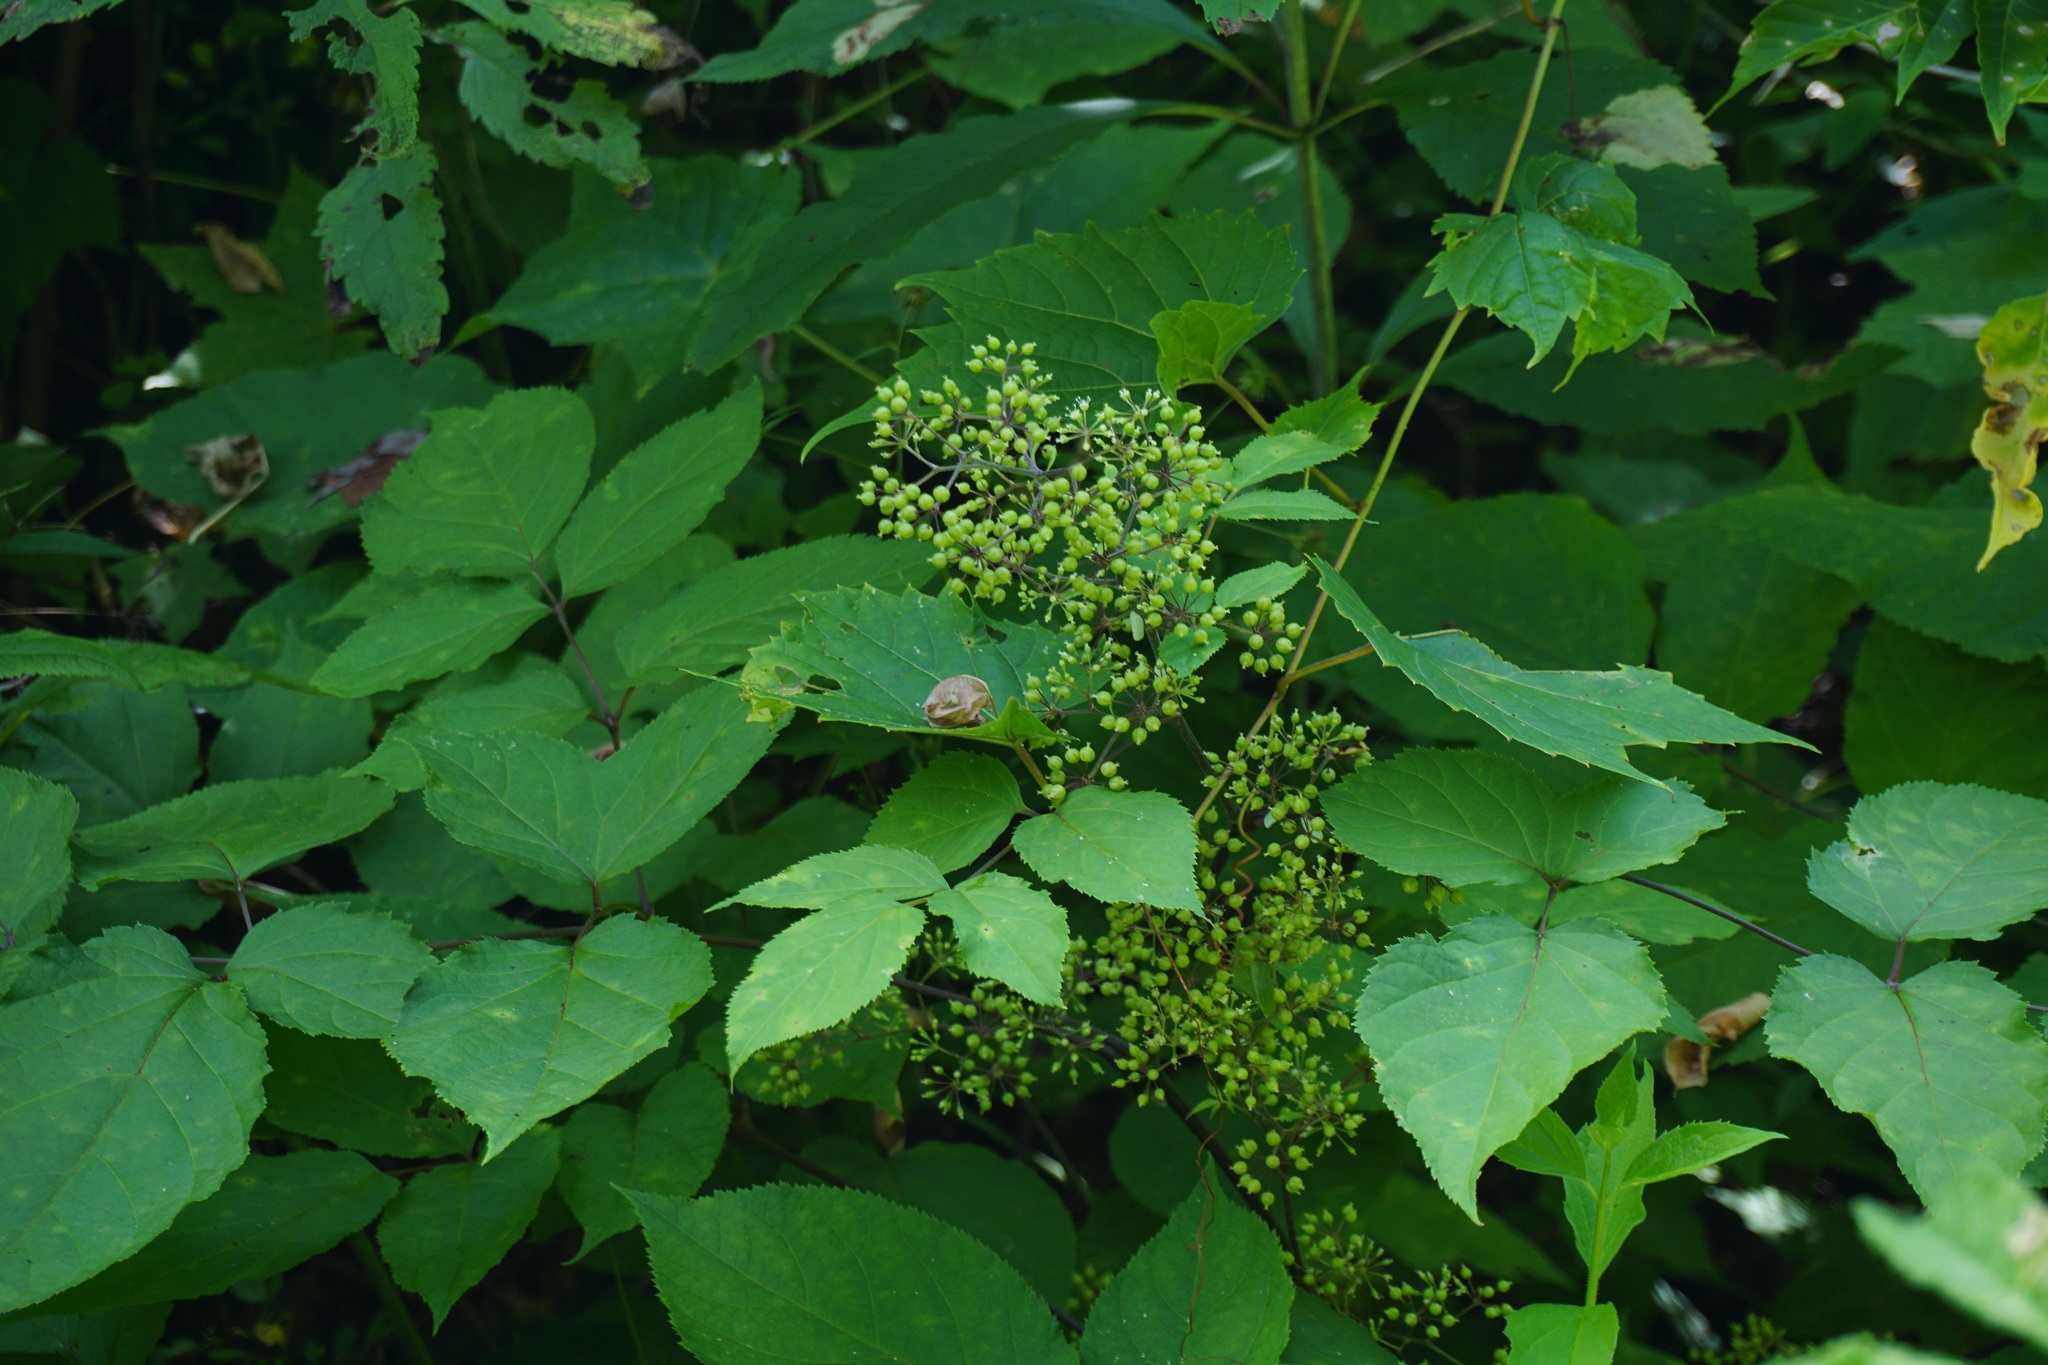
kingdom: Plantae
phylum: Tracheophyta
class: Magnoliopsida
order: Apiales
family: Araliaceae
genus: Aralia
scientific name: Aralia racemosa
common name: American-spikenard
